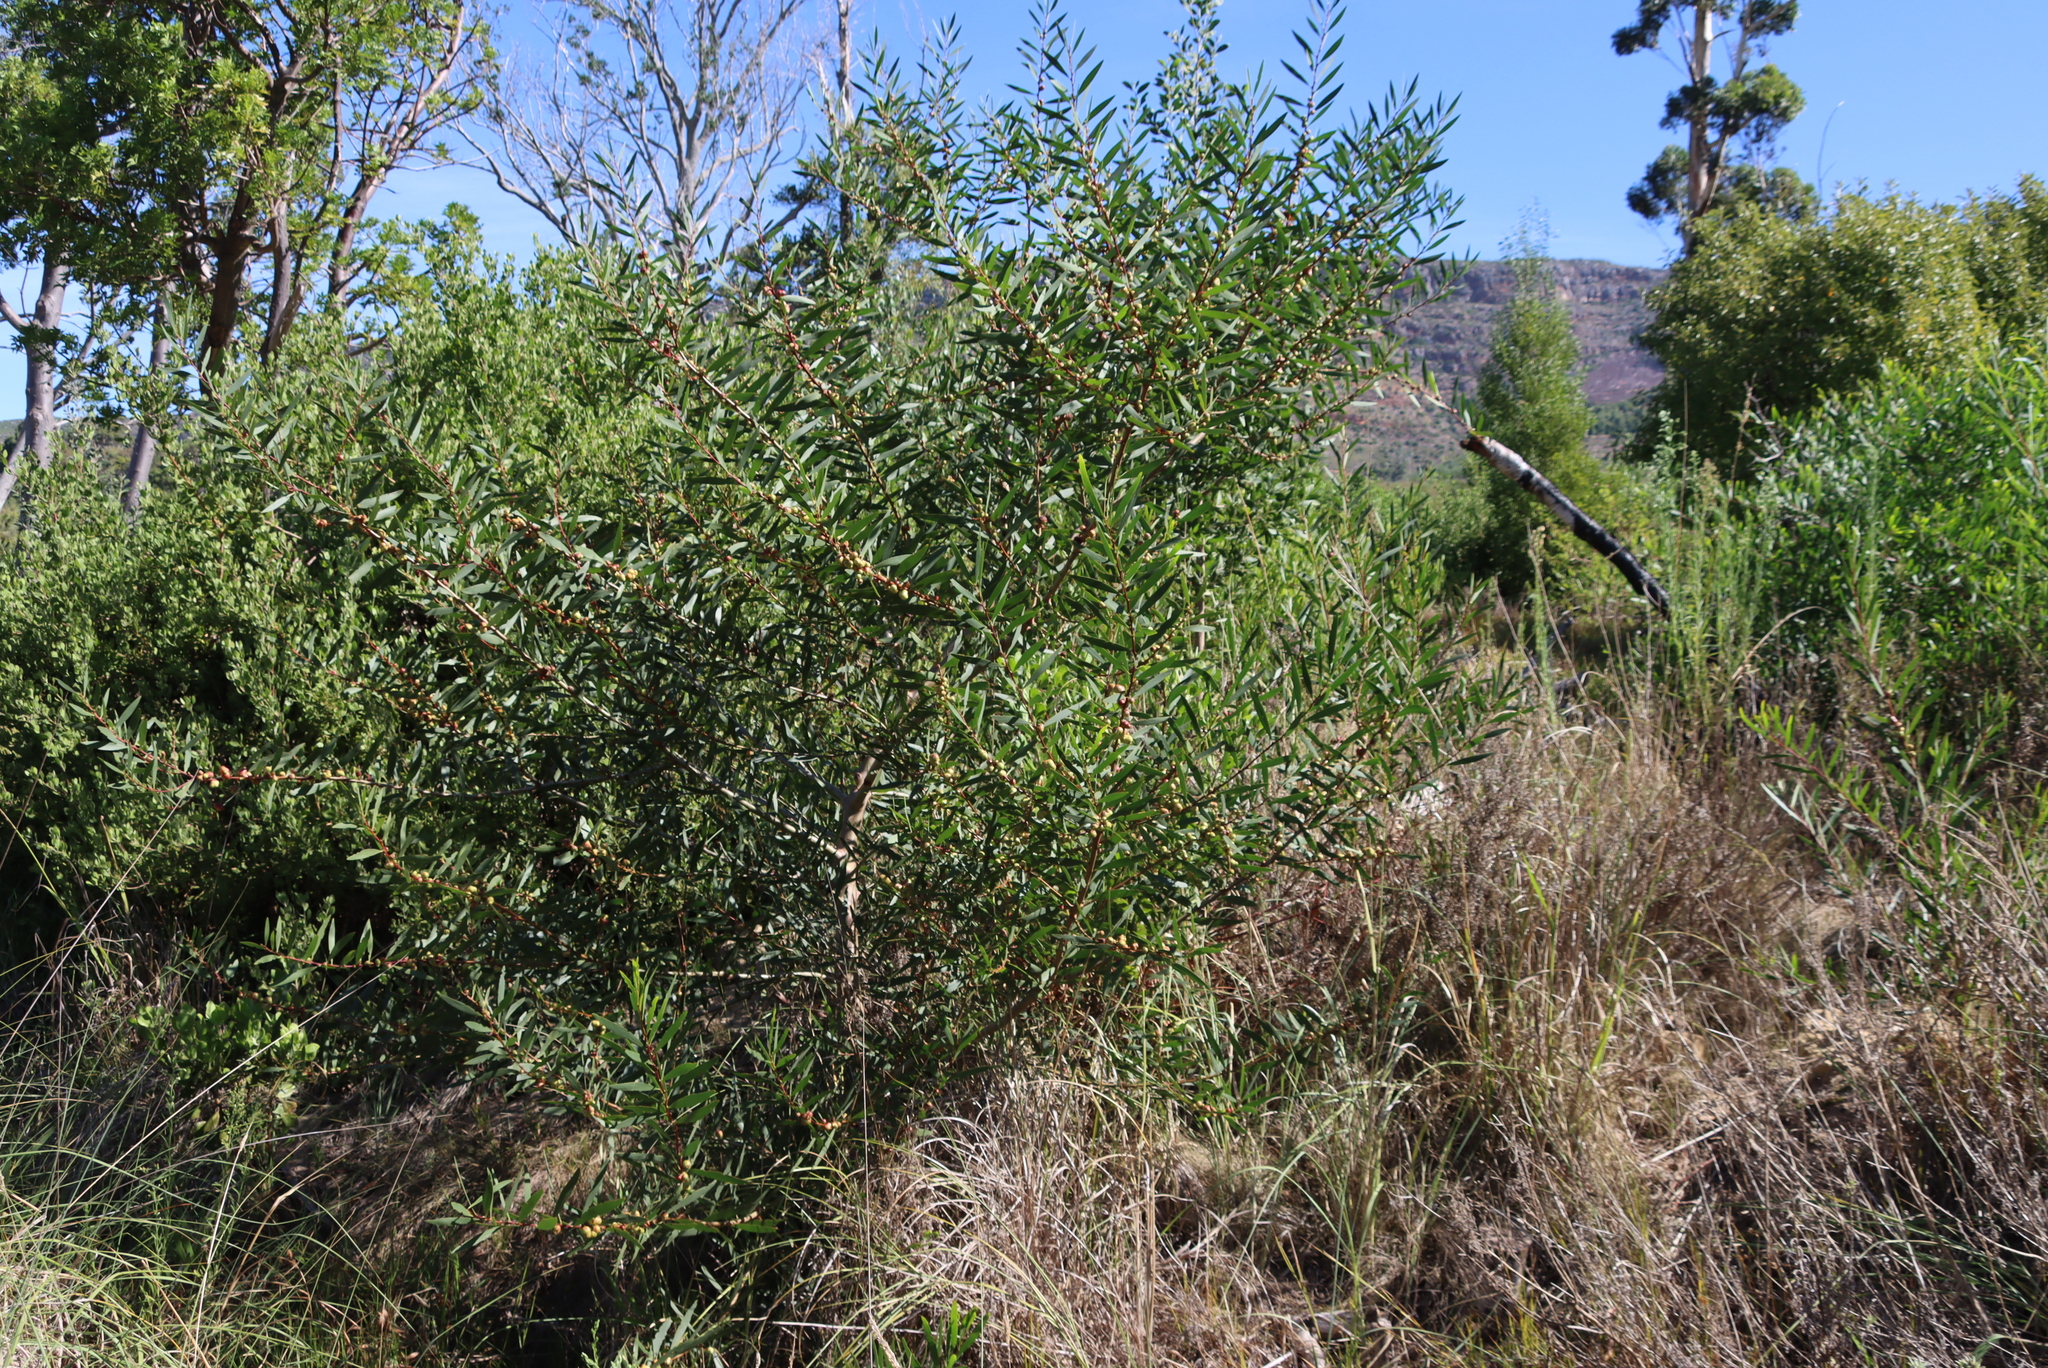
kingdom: Plantae
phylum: Tracheophyta
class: Magnoliopsida
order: Fabales
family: Fabaceae
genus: Acacia
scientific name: Acacia longifolia
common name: Sydney golden wattle
